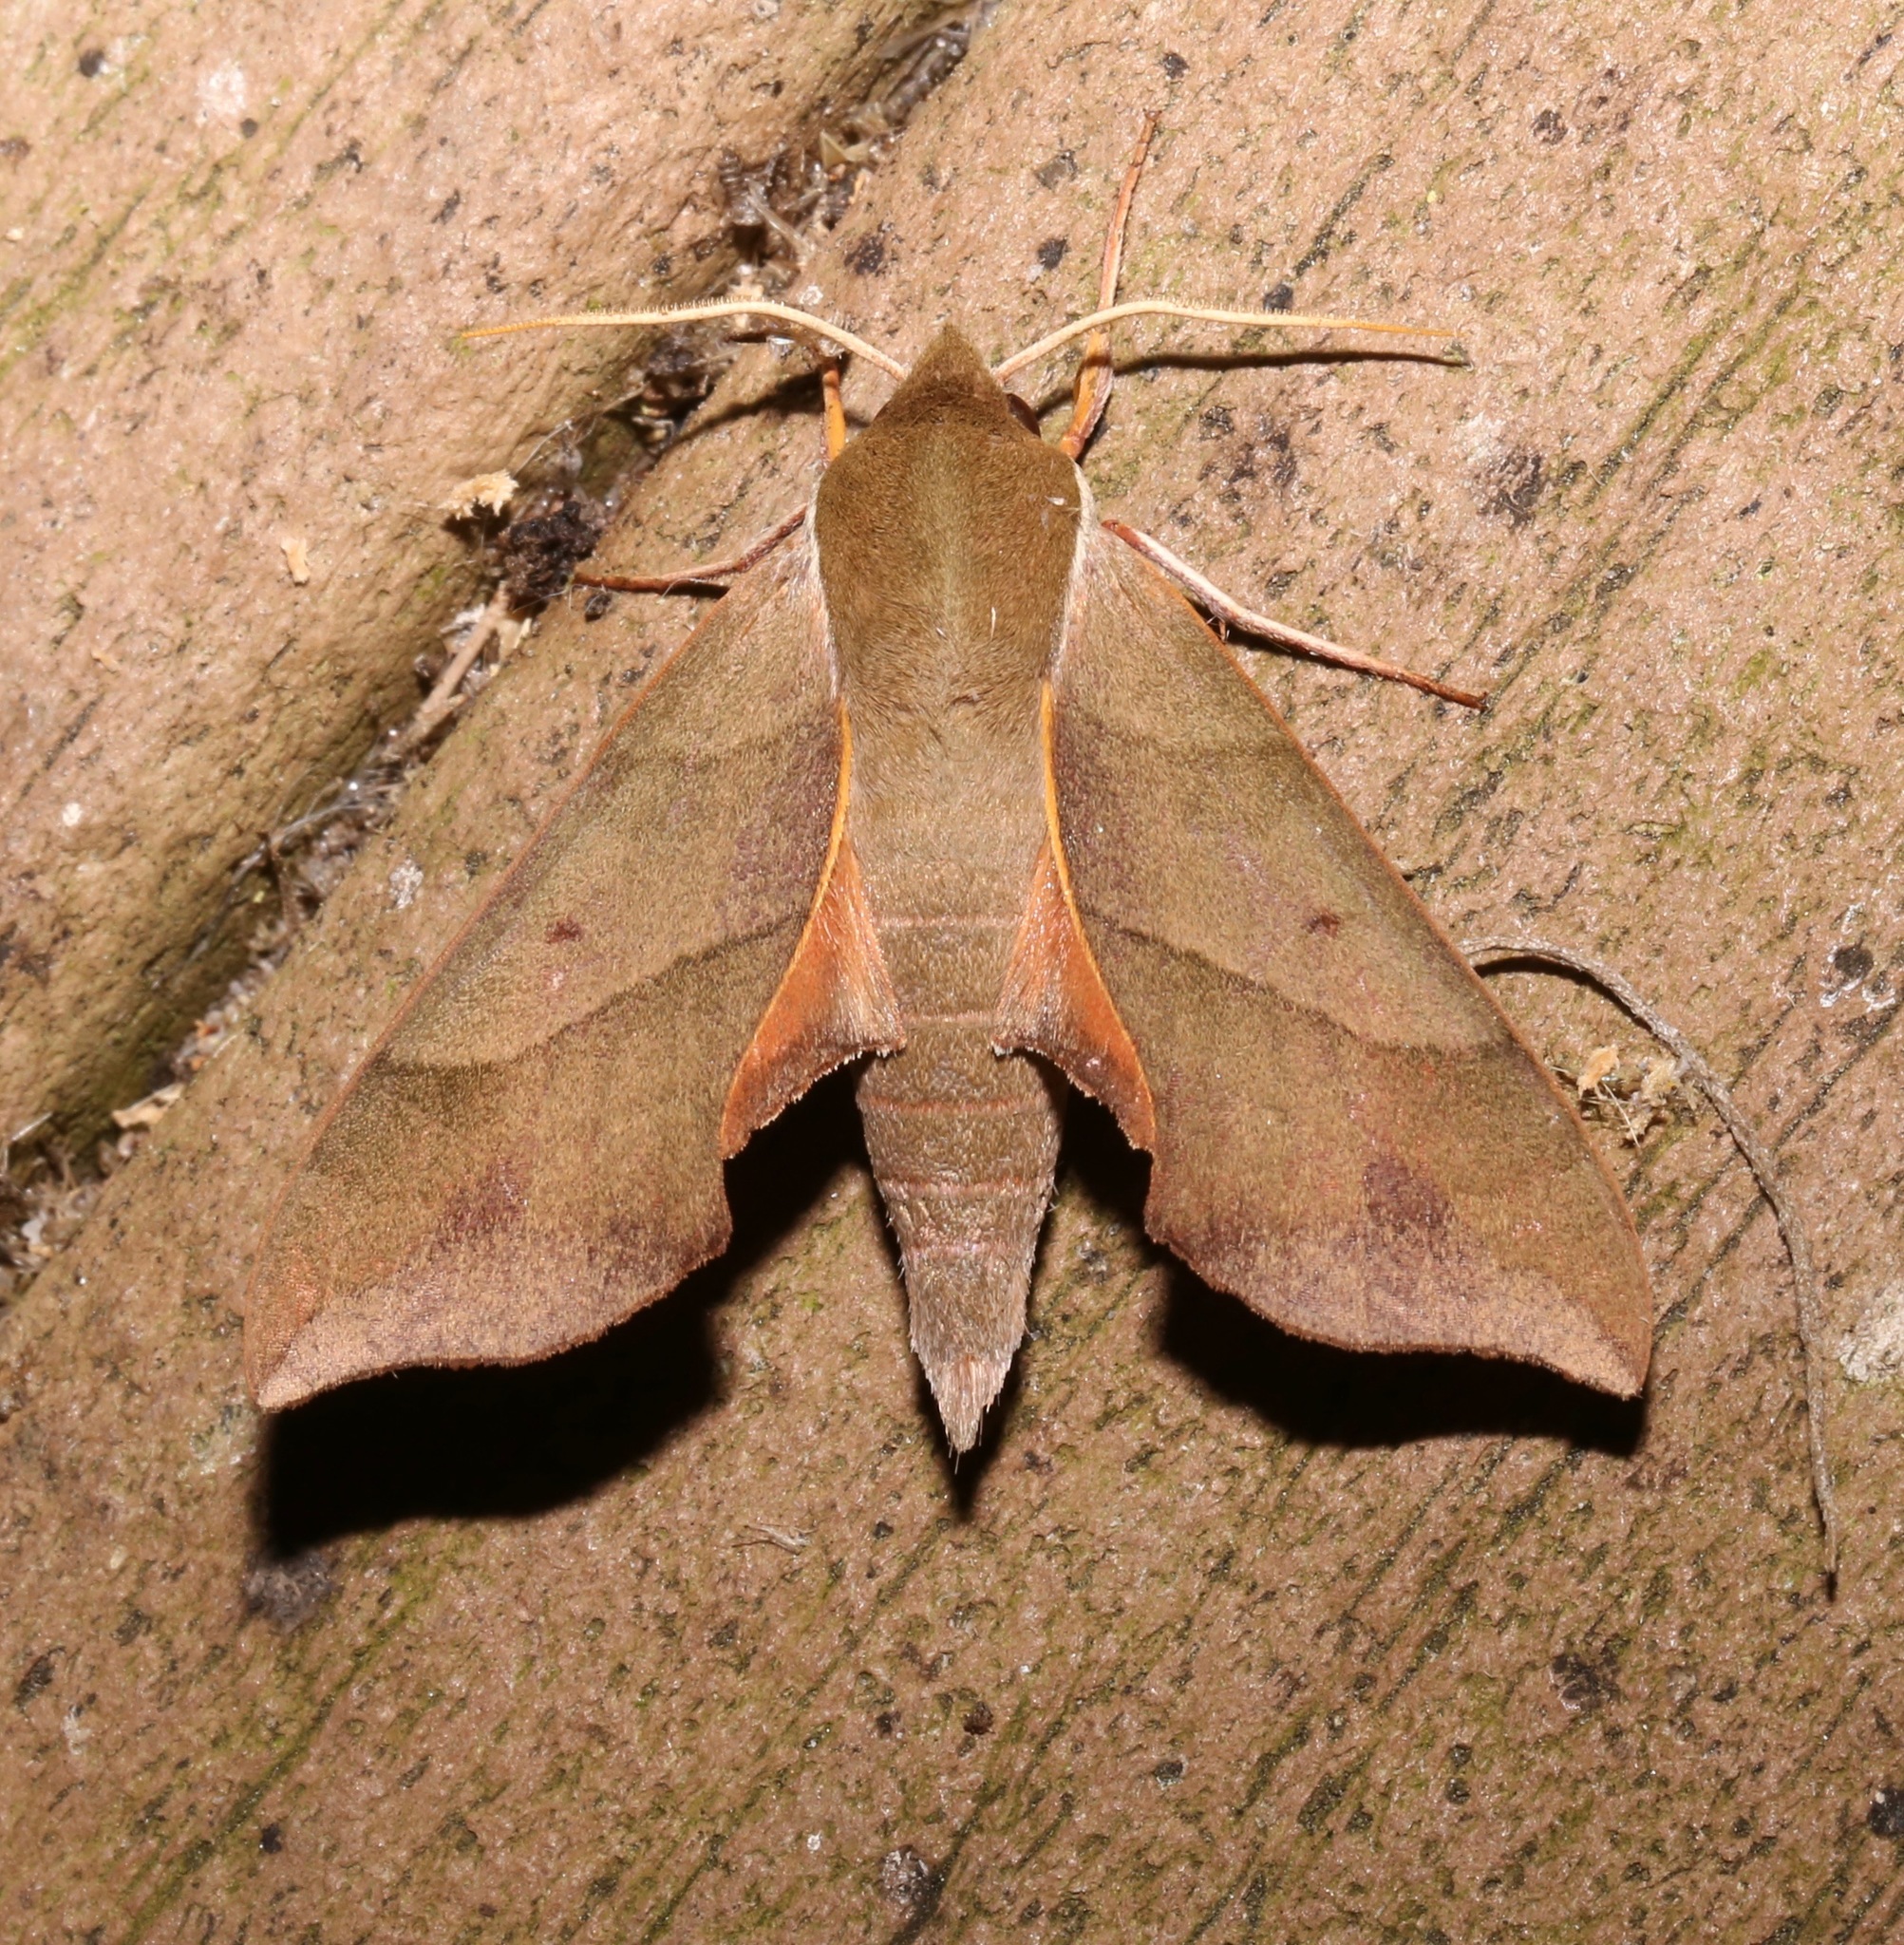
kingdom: Animalia
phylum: Arthropoda
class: Insecta
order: Lepidoptera
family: Sphingidae
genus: Darapsa
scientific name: Darapsa myron
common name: Hog sphinx
